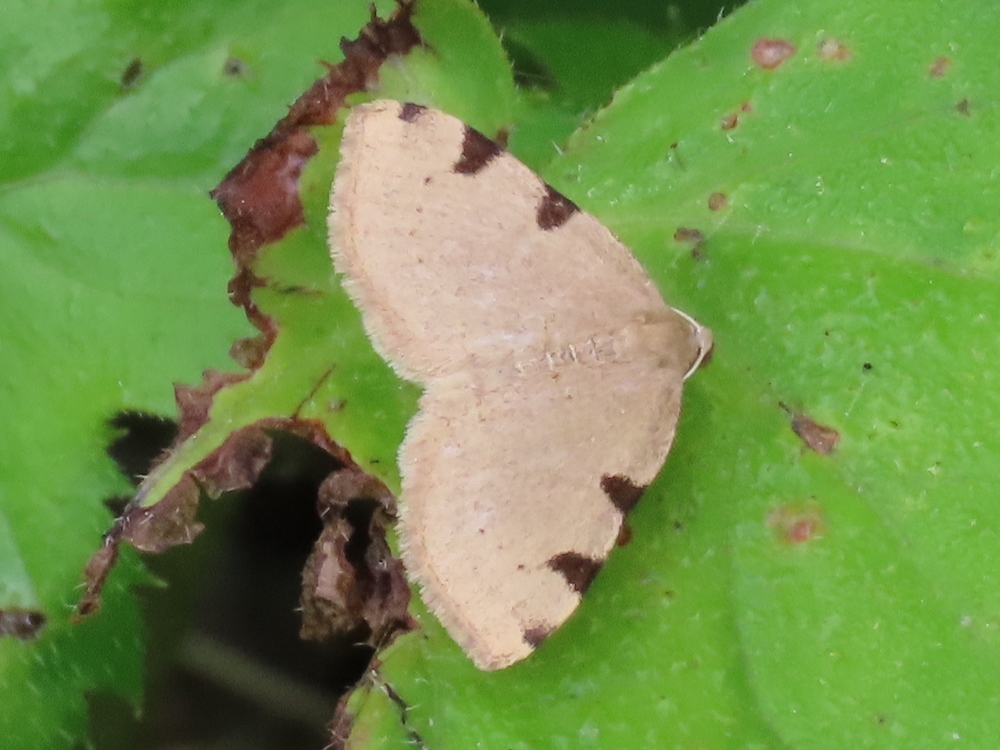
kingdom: Animalia
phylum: Arthropoda
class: Insecta
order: Lepidoptera
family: Geometridae
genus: Heterophleps
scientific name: Heterophleps triguttaria
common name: Three-spotted fillip
